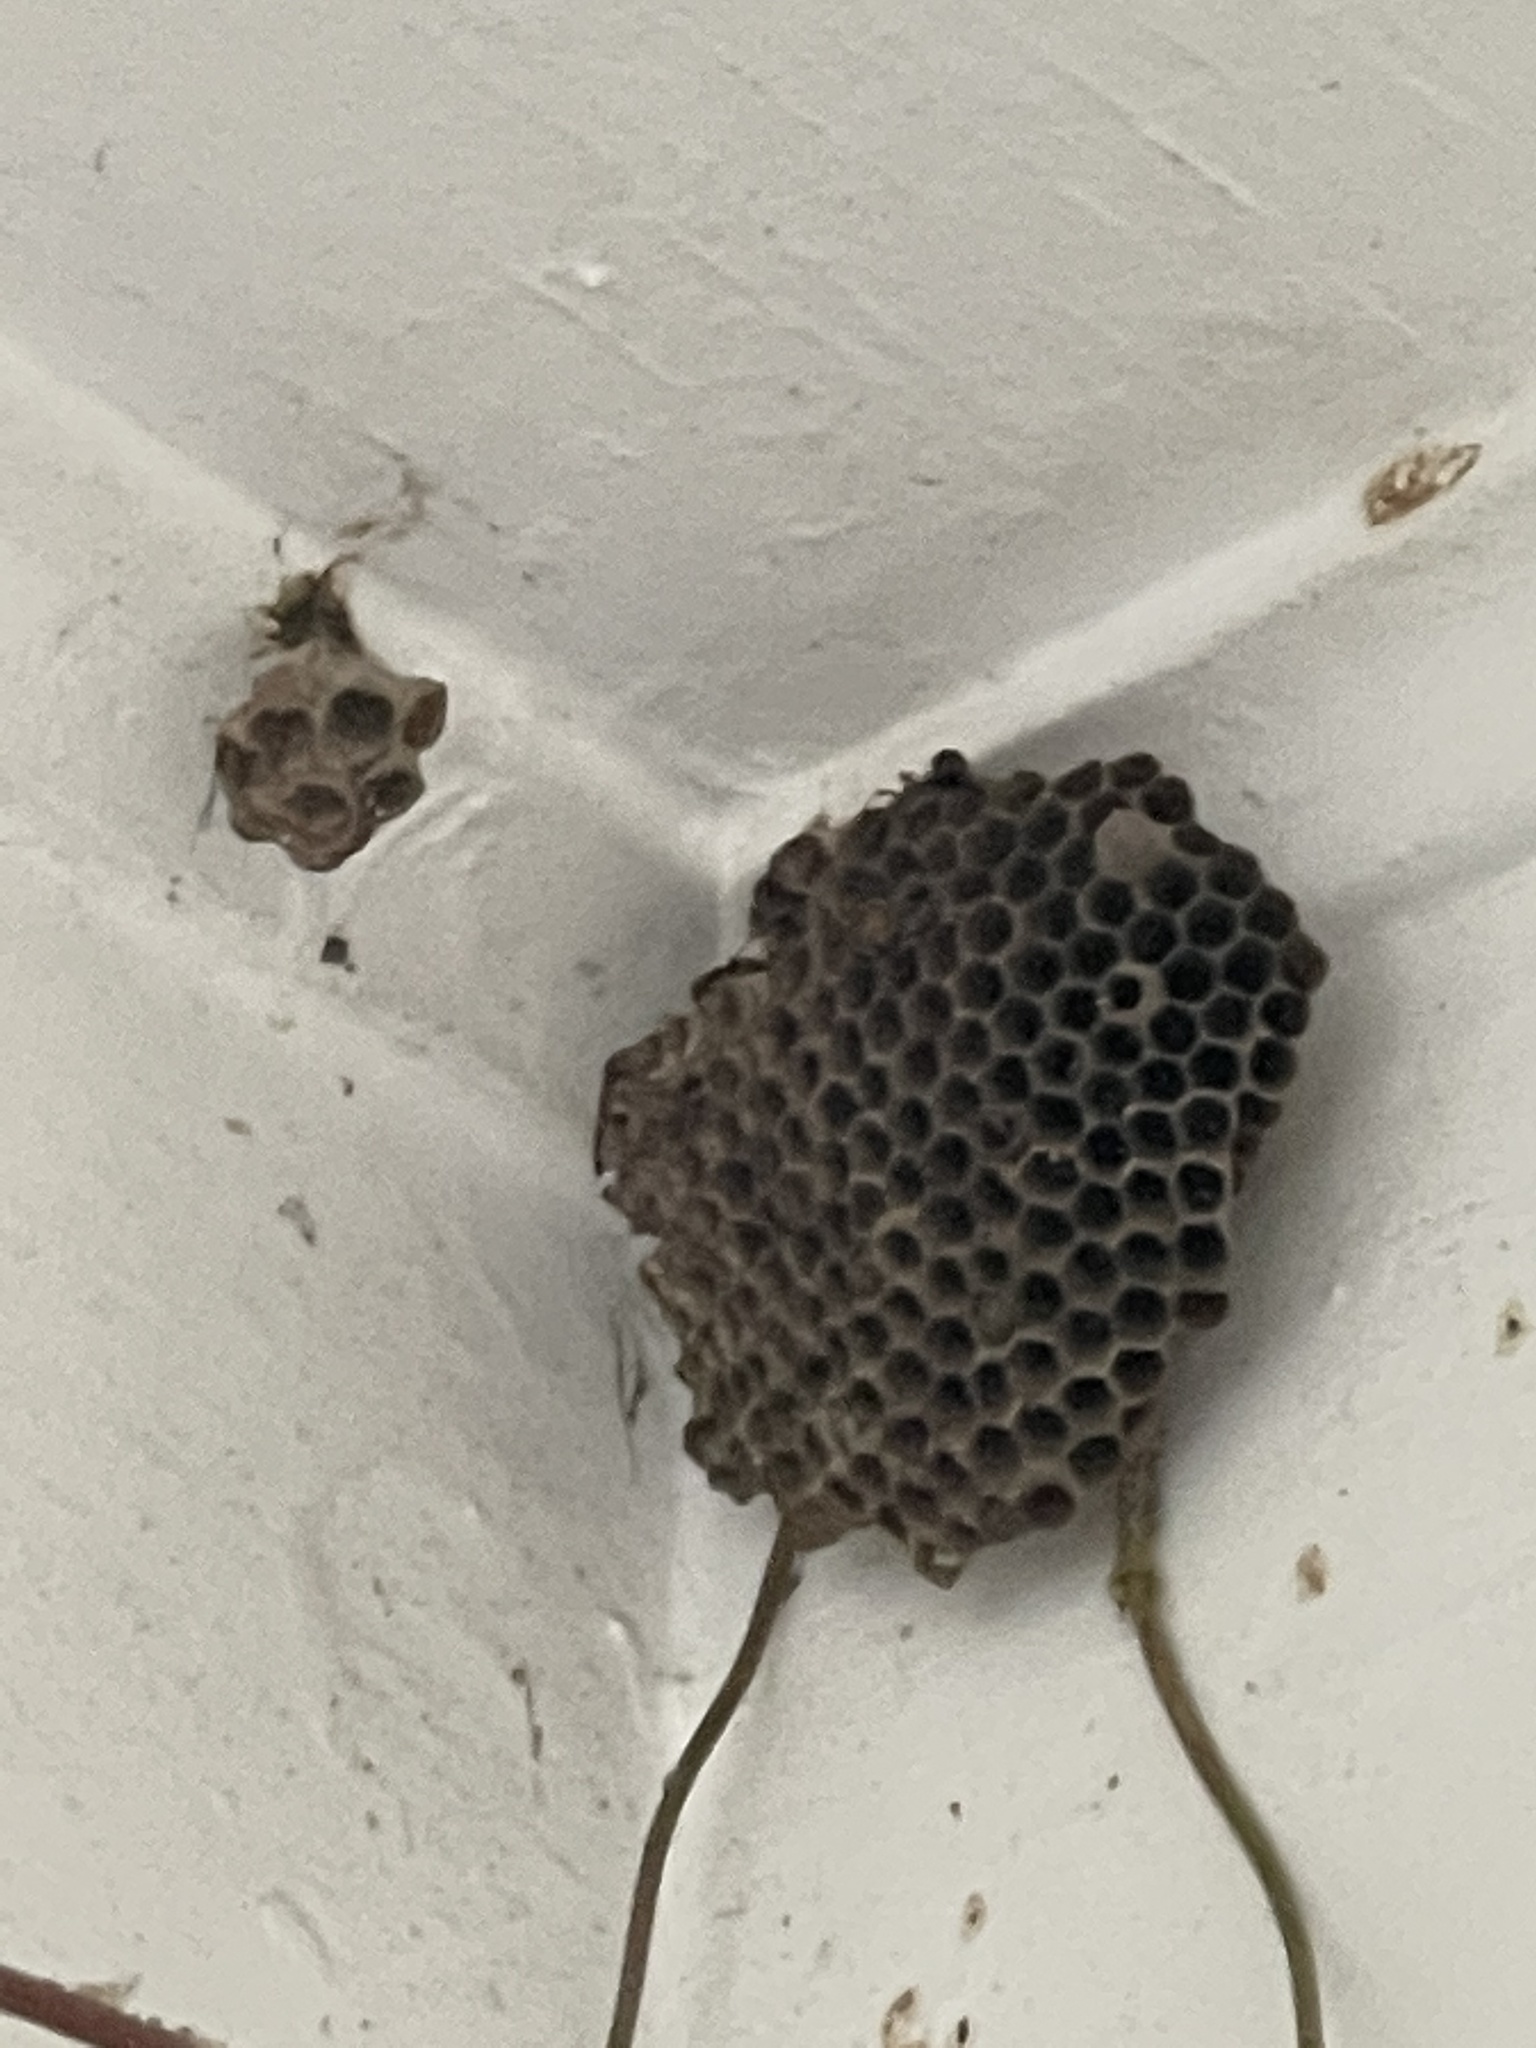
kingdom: Animalia
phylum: Arthropoda
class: Insecta
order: Hymenoptera
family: Eumenidae
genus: Polistes
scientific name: Polistes
